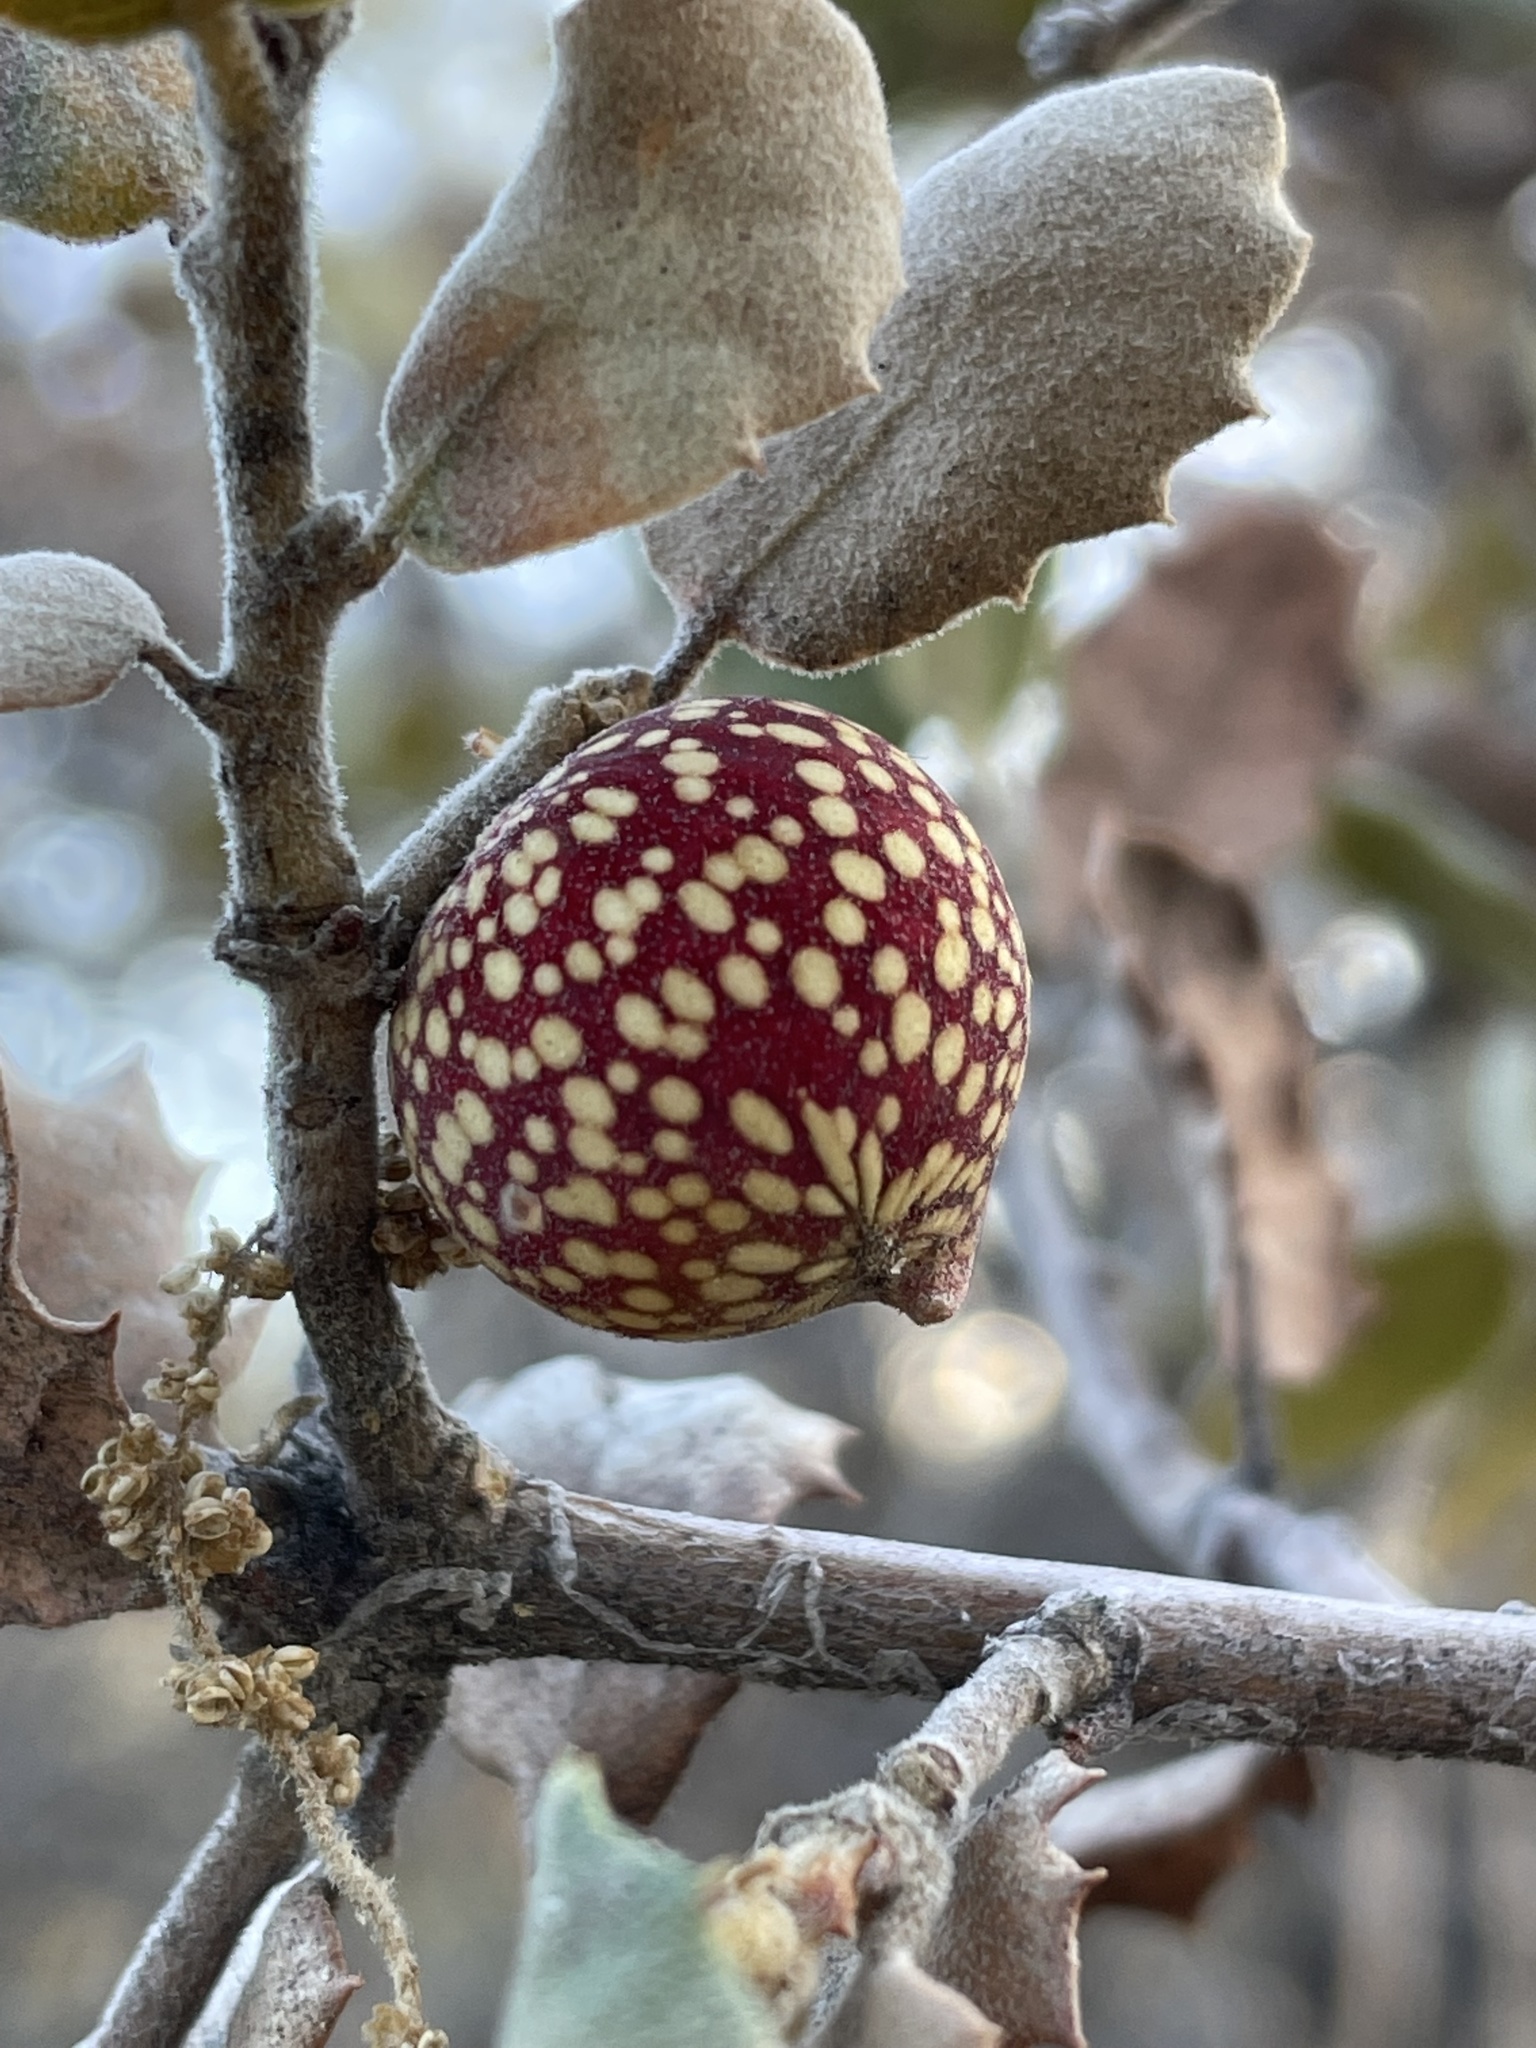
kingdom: Animalia
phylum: Arthropoda
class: Insecta
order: Hymenoptera
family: Cynipidae
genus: Burnettweldia
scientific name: Burnettweldia
